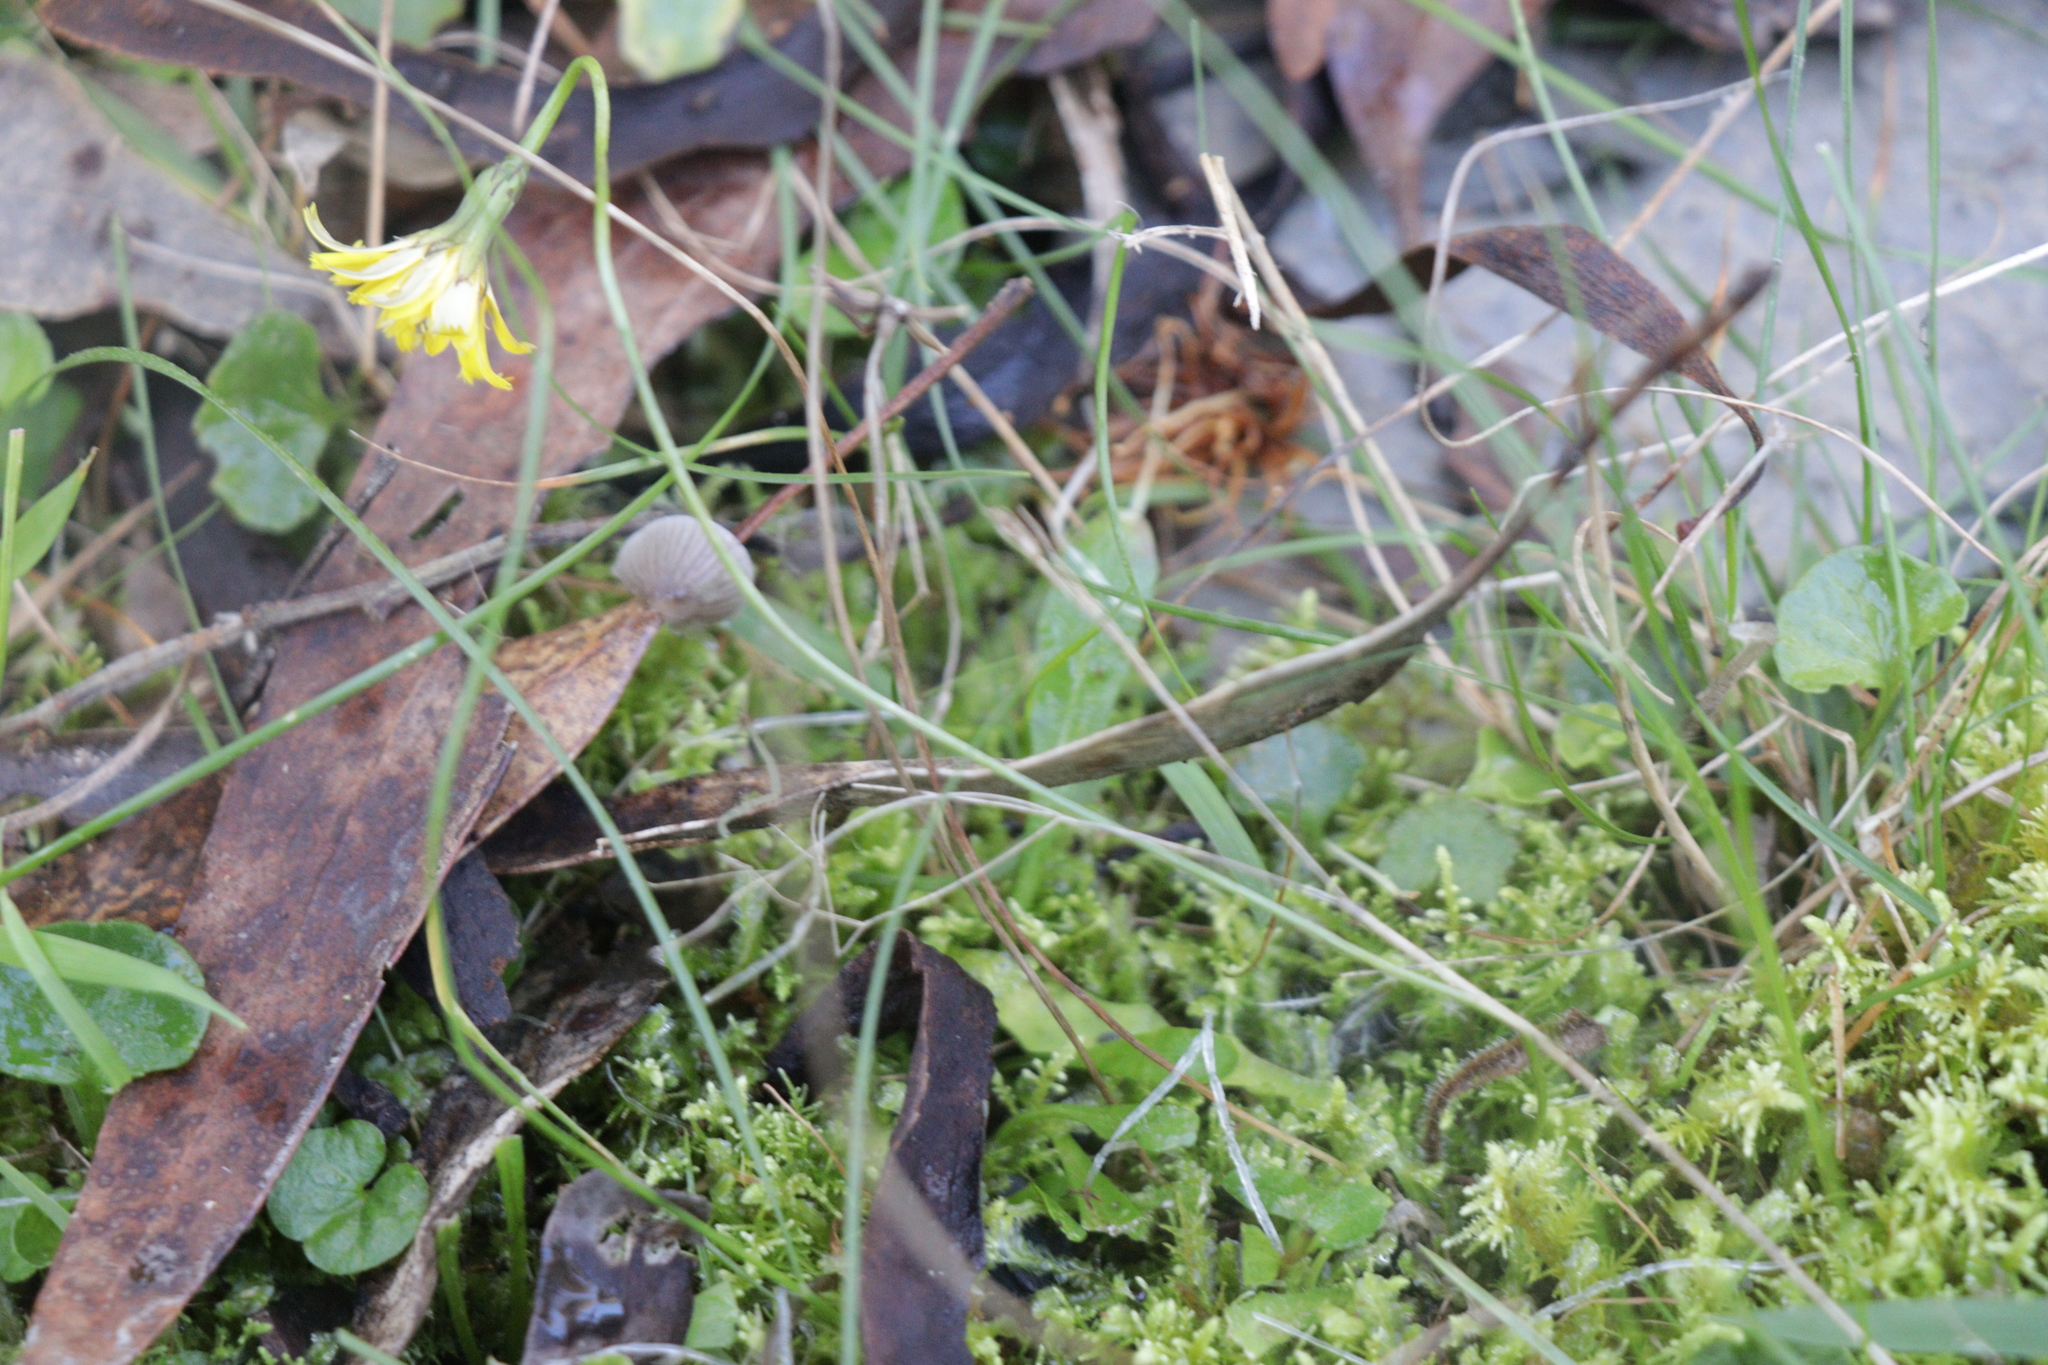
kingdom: Plantae
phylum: Tracheophyta
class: Magnoliopsida
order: Asterales
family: Asteraceae
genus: Microseris
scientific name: Microseris lanceolata
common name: Yam daisy
